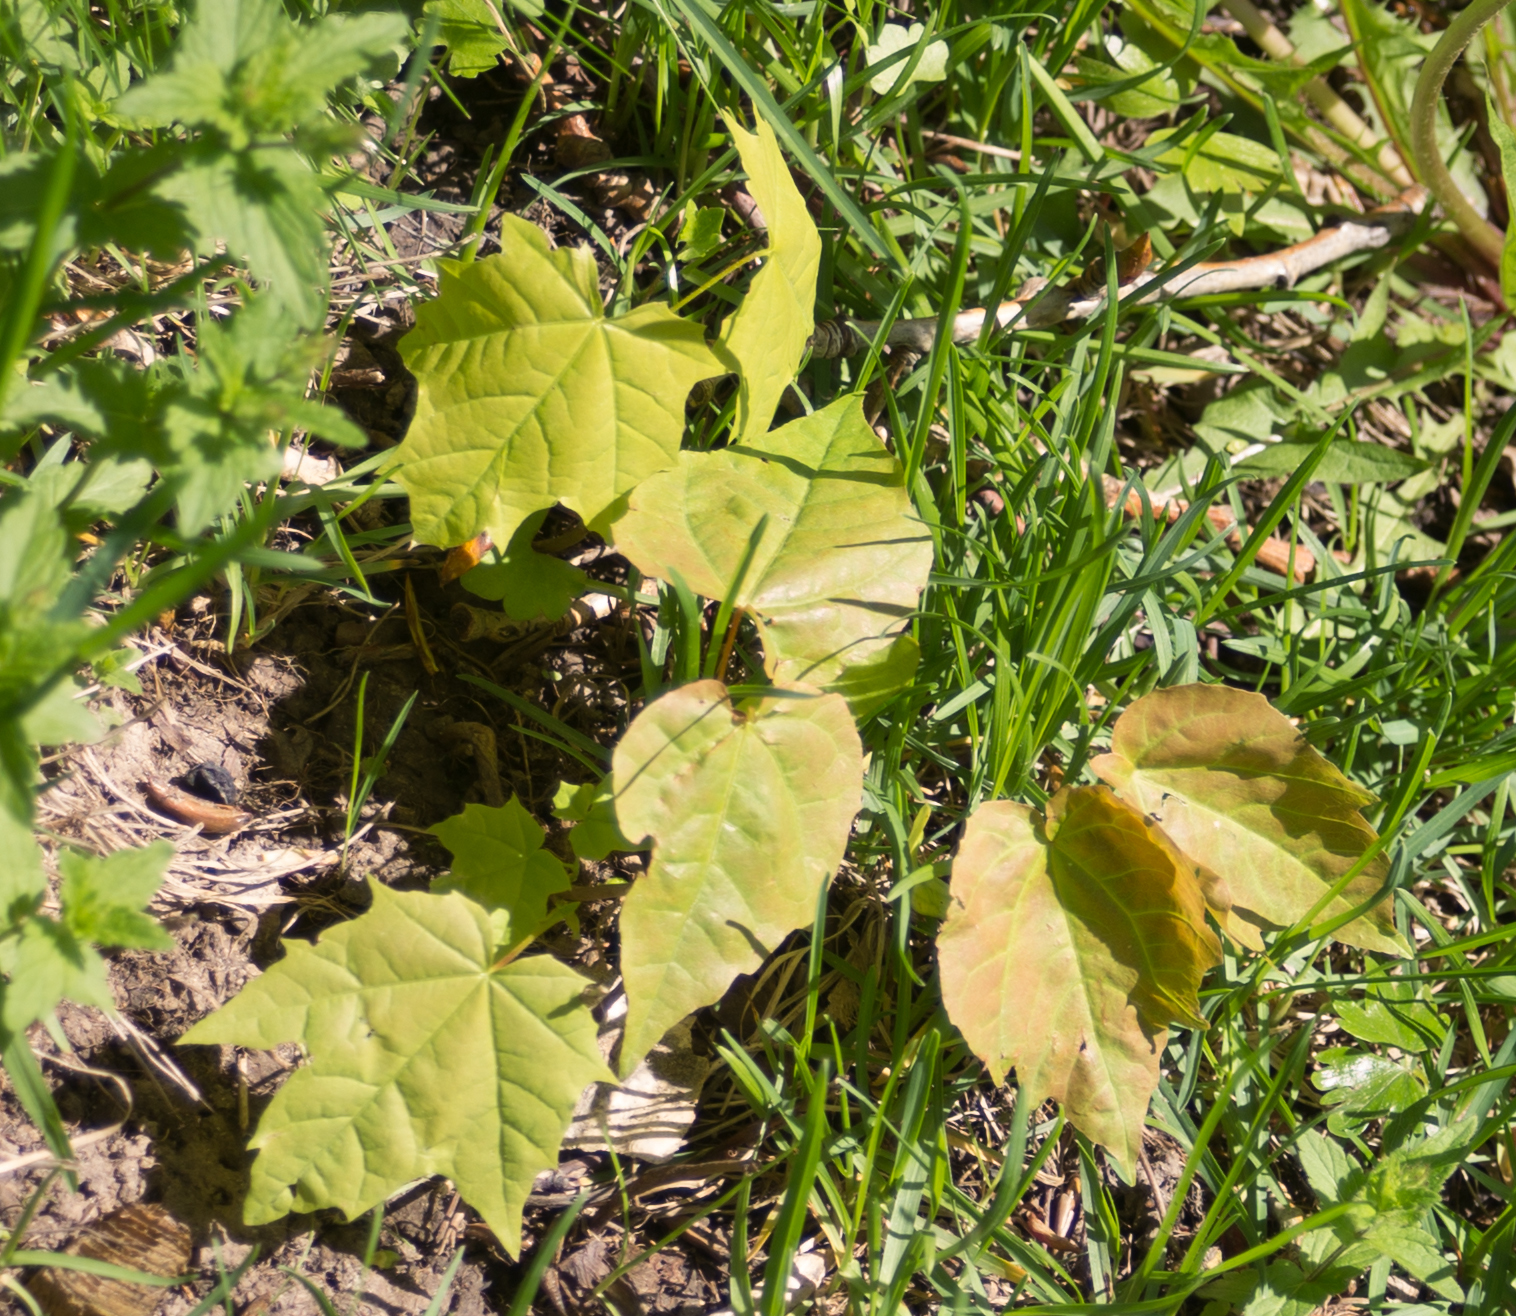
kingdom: Plantae
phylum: Tracheophyta
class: Magnoliopsida
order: Sapindales
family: Sapindaceae
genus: Acer
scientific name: Acer platanoides
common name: Norway maple
